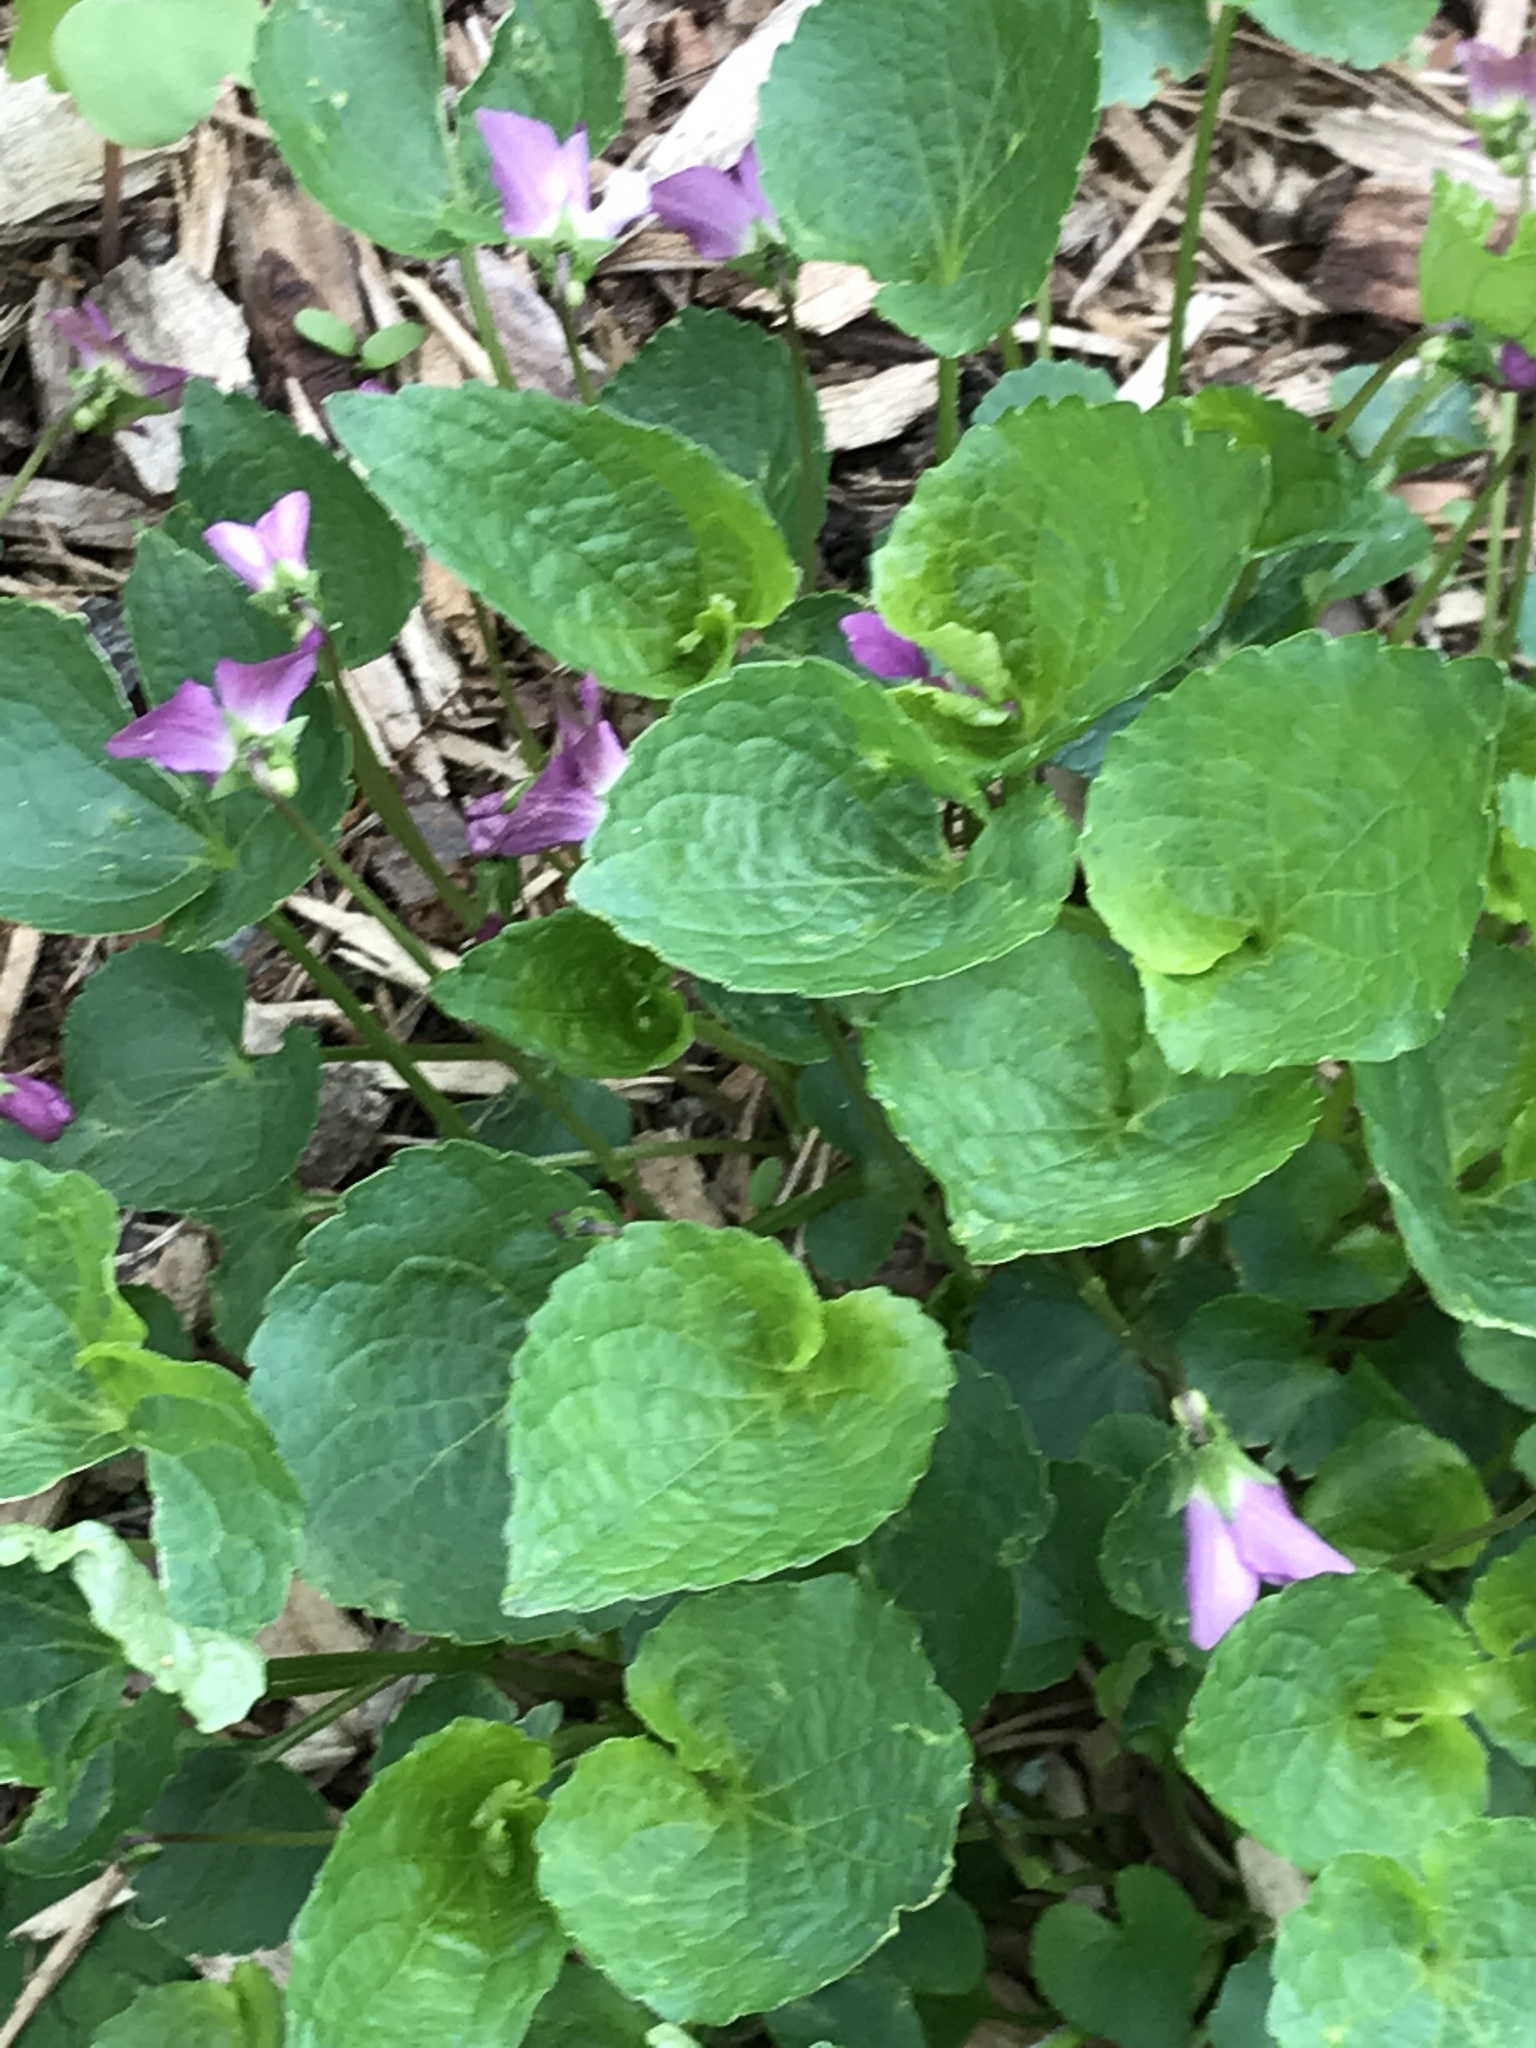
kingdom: Plantae
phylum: Tracheophyta
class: Magnoliopsida
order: Malpighiales
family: Violaceae
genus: Viola
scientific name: Viola sororia
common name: Dooryard violet
